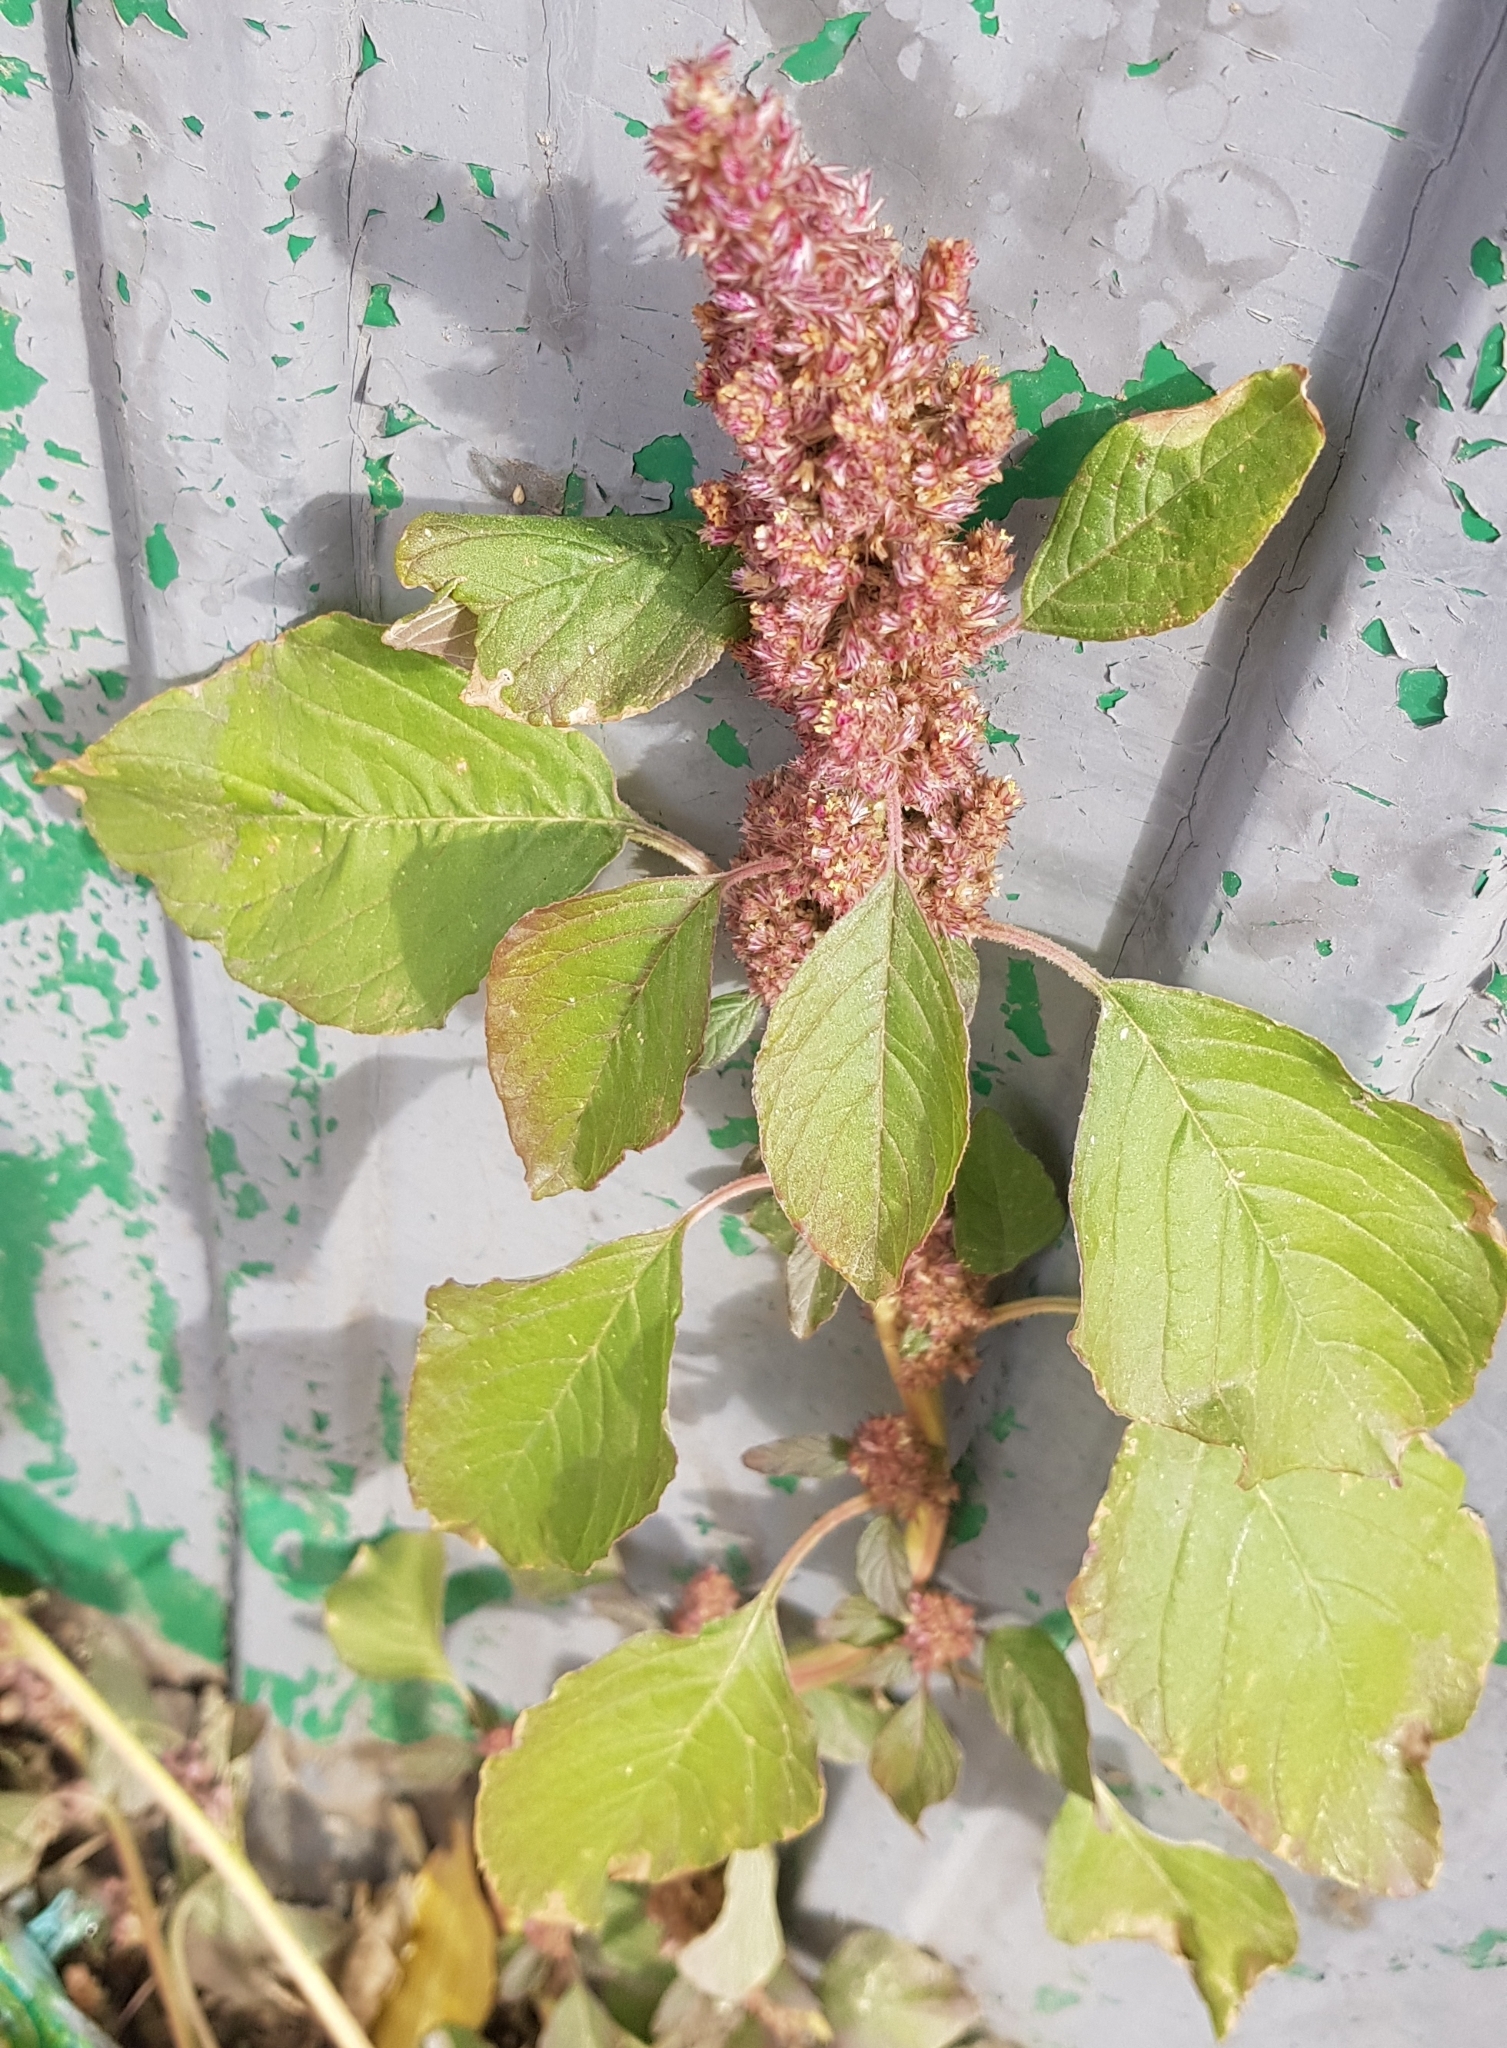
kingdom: Plantae
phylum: Tracheophyta
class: Magnoliopsida
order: Caryophyllales
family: Amaranthaceae
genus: Amaranthus
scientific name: Amaranthus retroflexus
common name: Redroot amaranth
